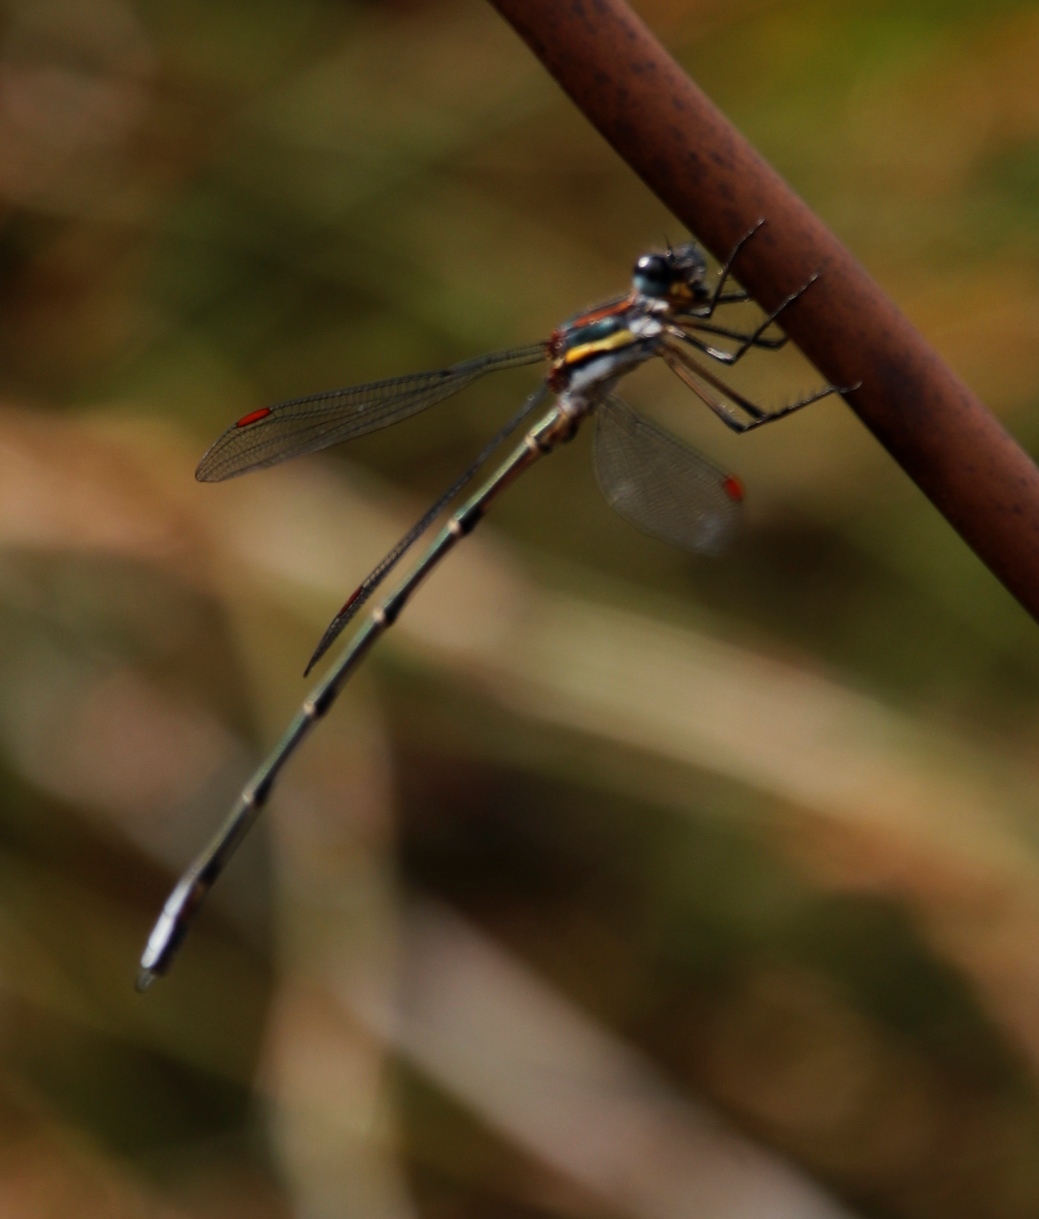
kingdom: Animalia
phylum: Arthropoda
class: Insecta
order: Odonata
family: Synlestidae
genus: Chlorolestes
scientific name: Chlorolestes conspicuus
